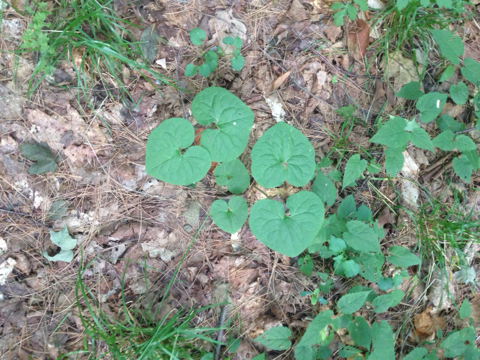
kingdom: Plantae
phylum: Tracheophyta
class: Magnoliopsida
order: Piperales
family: Aristolochiaceae
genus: Asarum
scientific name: Asarum canadense
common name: Wild ginger
